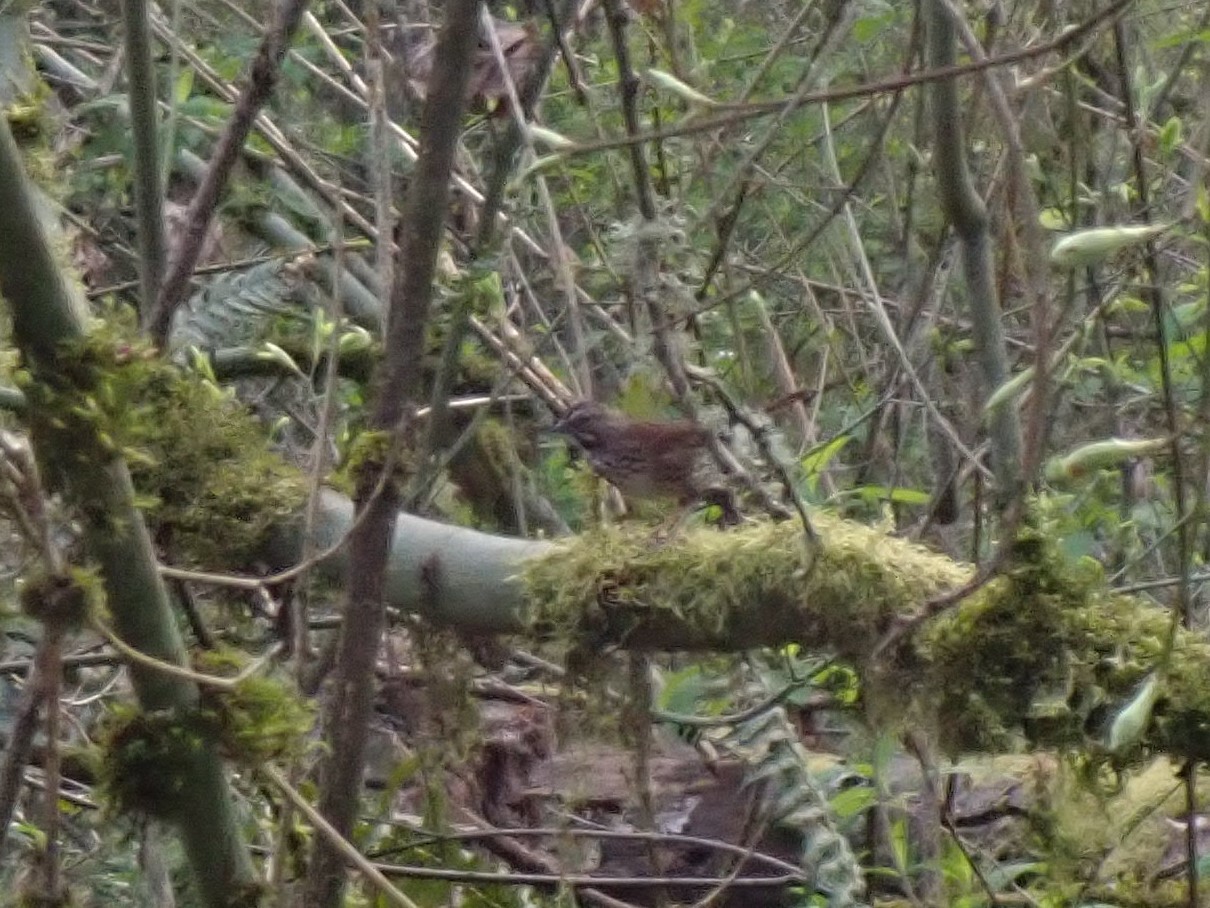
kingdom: Animalia
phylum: Chordata
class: Aves
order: Passeriformes
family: Passerellidae
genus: Melospiza
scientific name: Melospiza melodia
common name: Song sparrow
